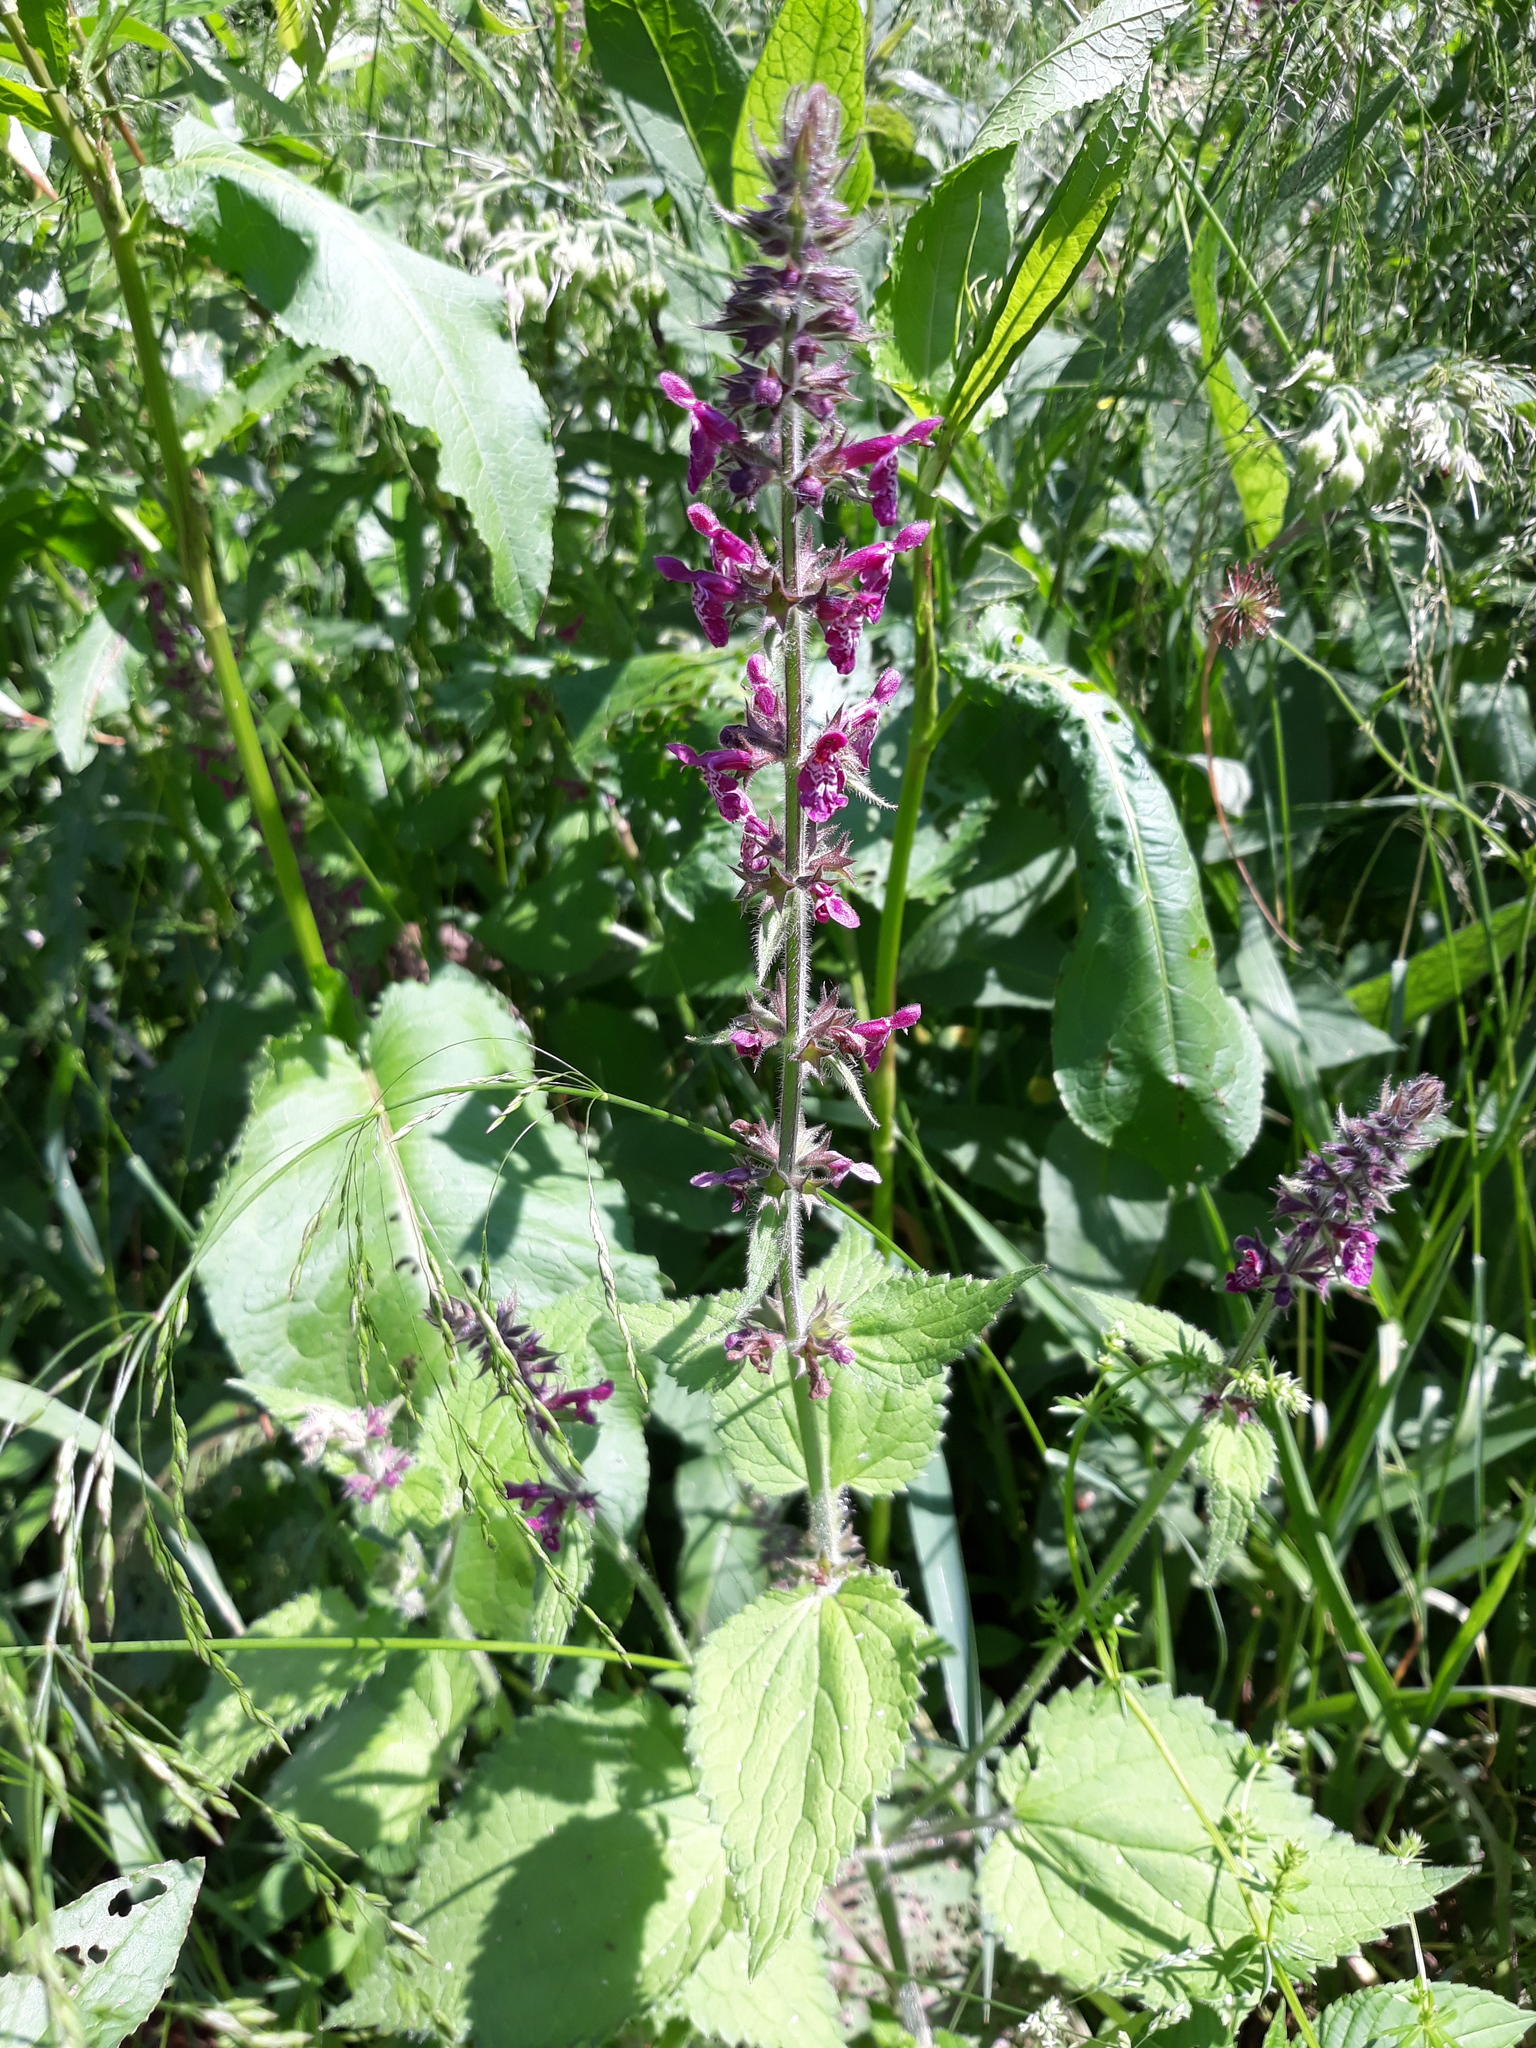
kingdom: Plantae
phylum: Tracheophyta
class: Magnoliopsida
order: Lamiales
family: Lamiaceae
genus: Stachys
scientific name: Stachys sylvatica
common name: Hedge woundwort
